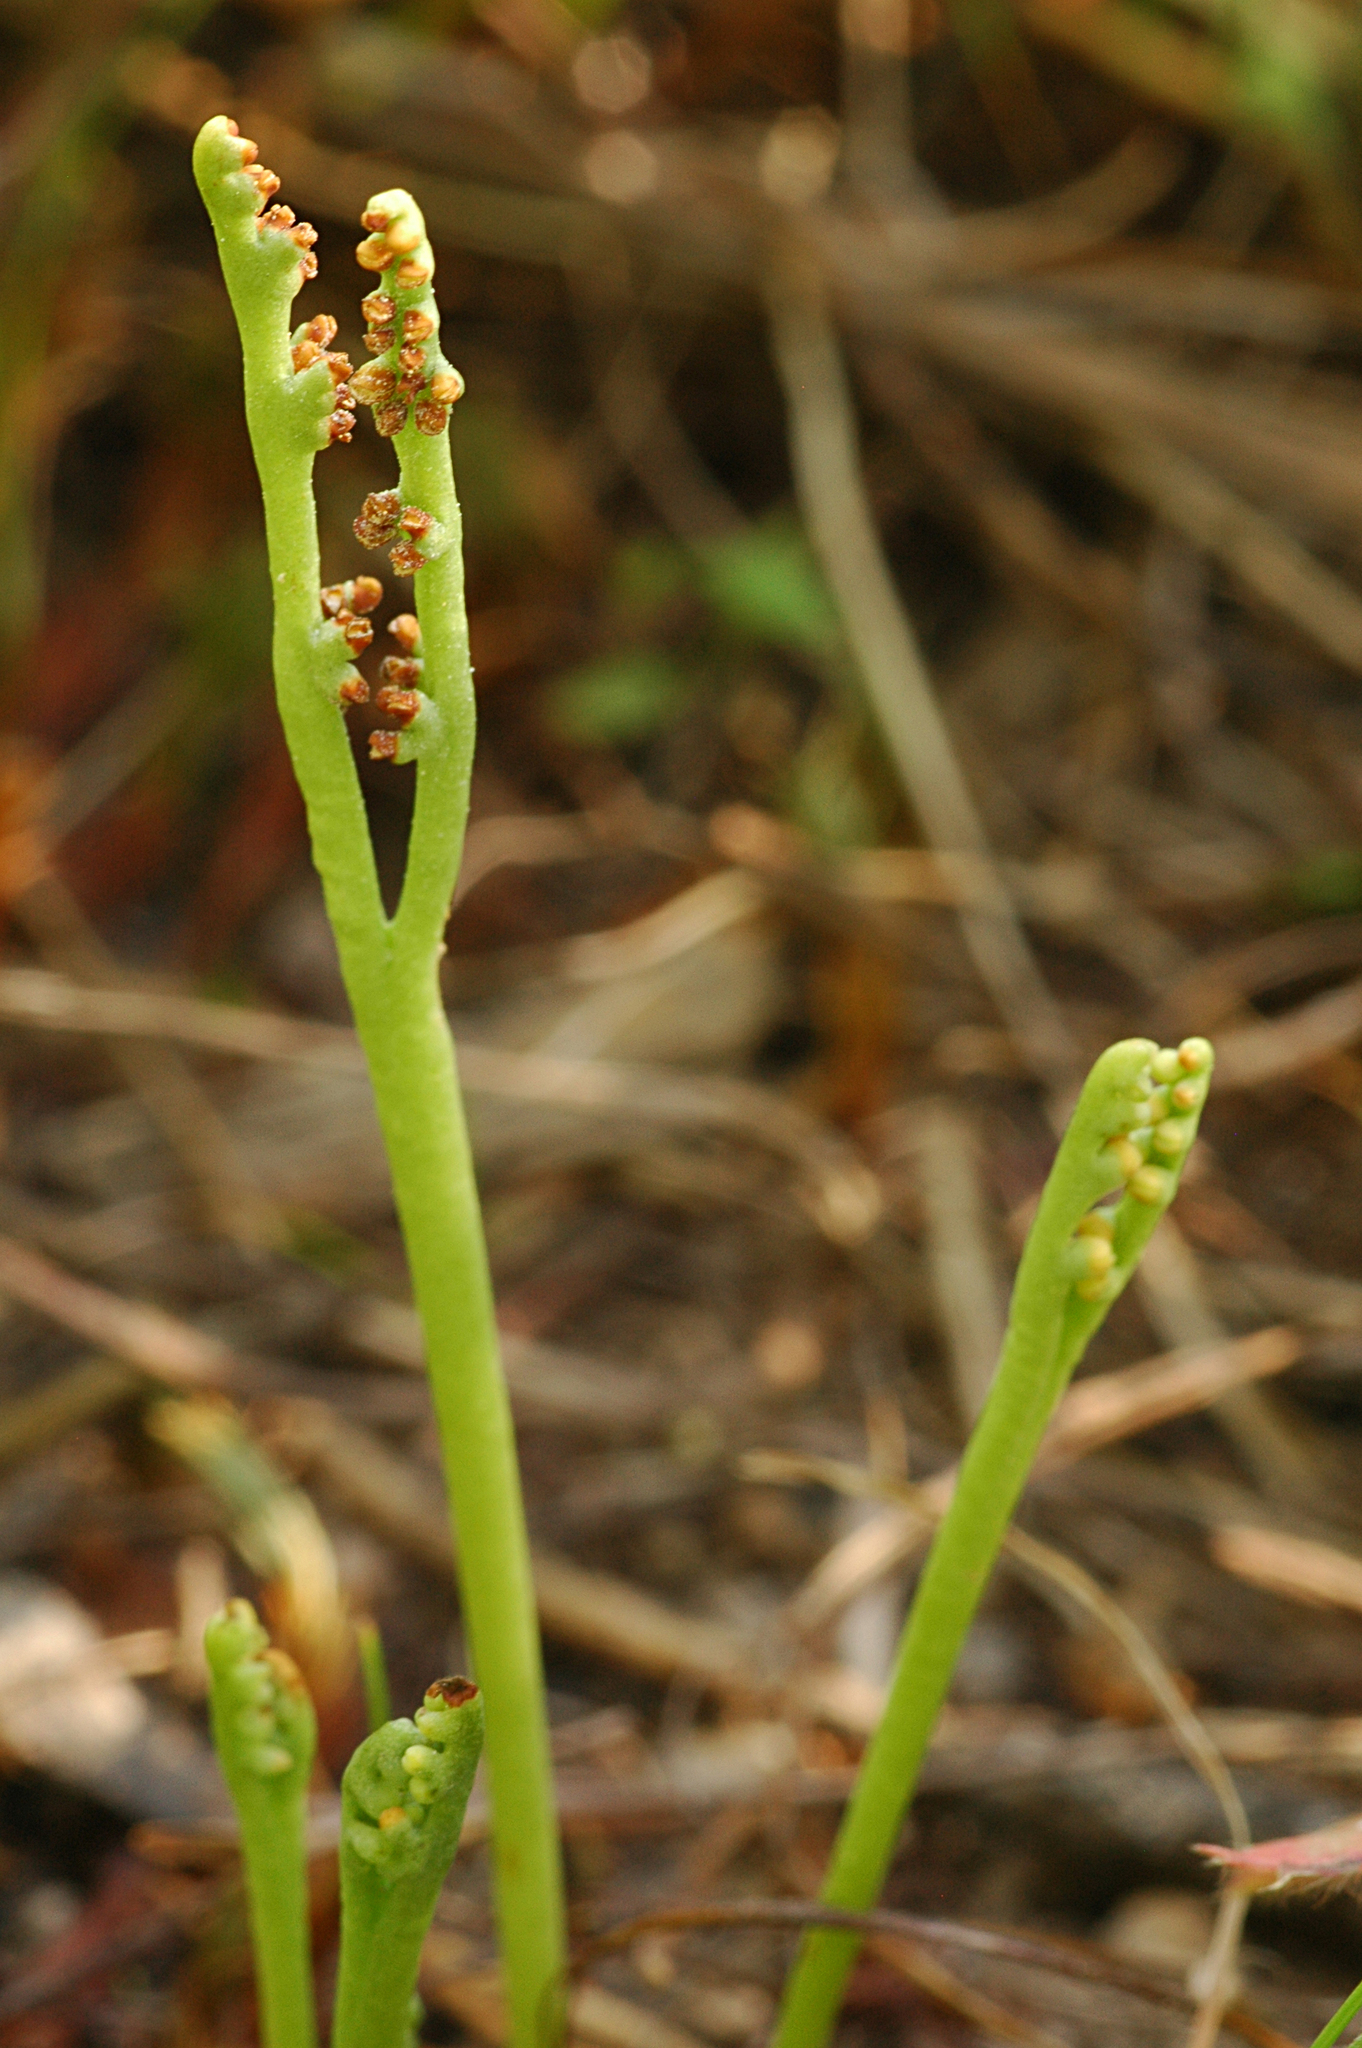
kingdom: Plantae
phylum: Tracheophyta
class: Polypodiopsida
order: Ophioglossales
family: Ophioglossaceae
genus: Botrychium
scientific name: Botrychium paradoxum
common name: Paradox moonwort
